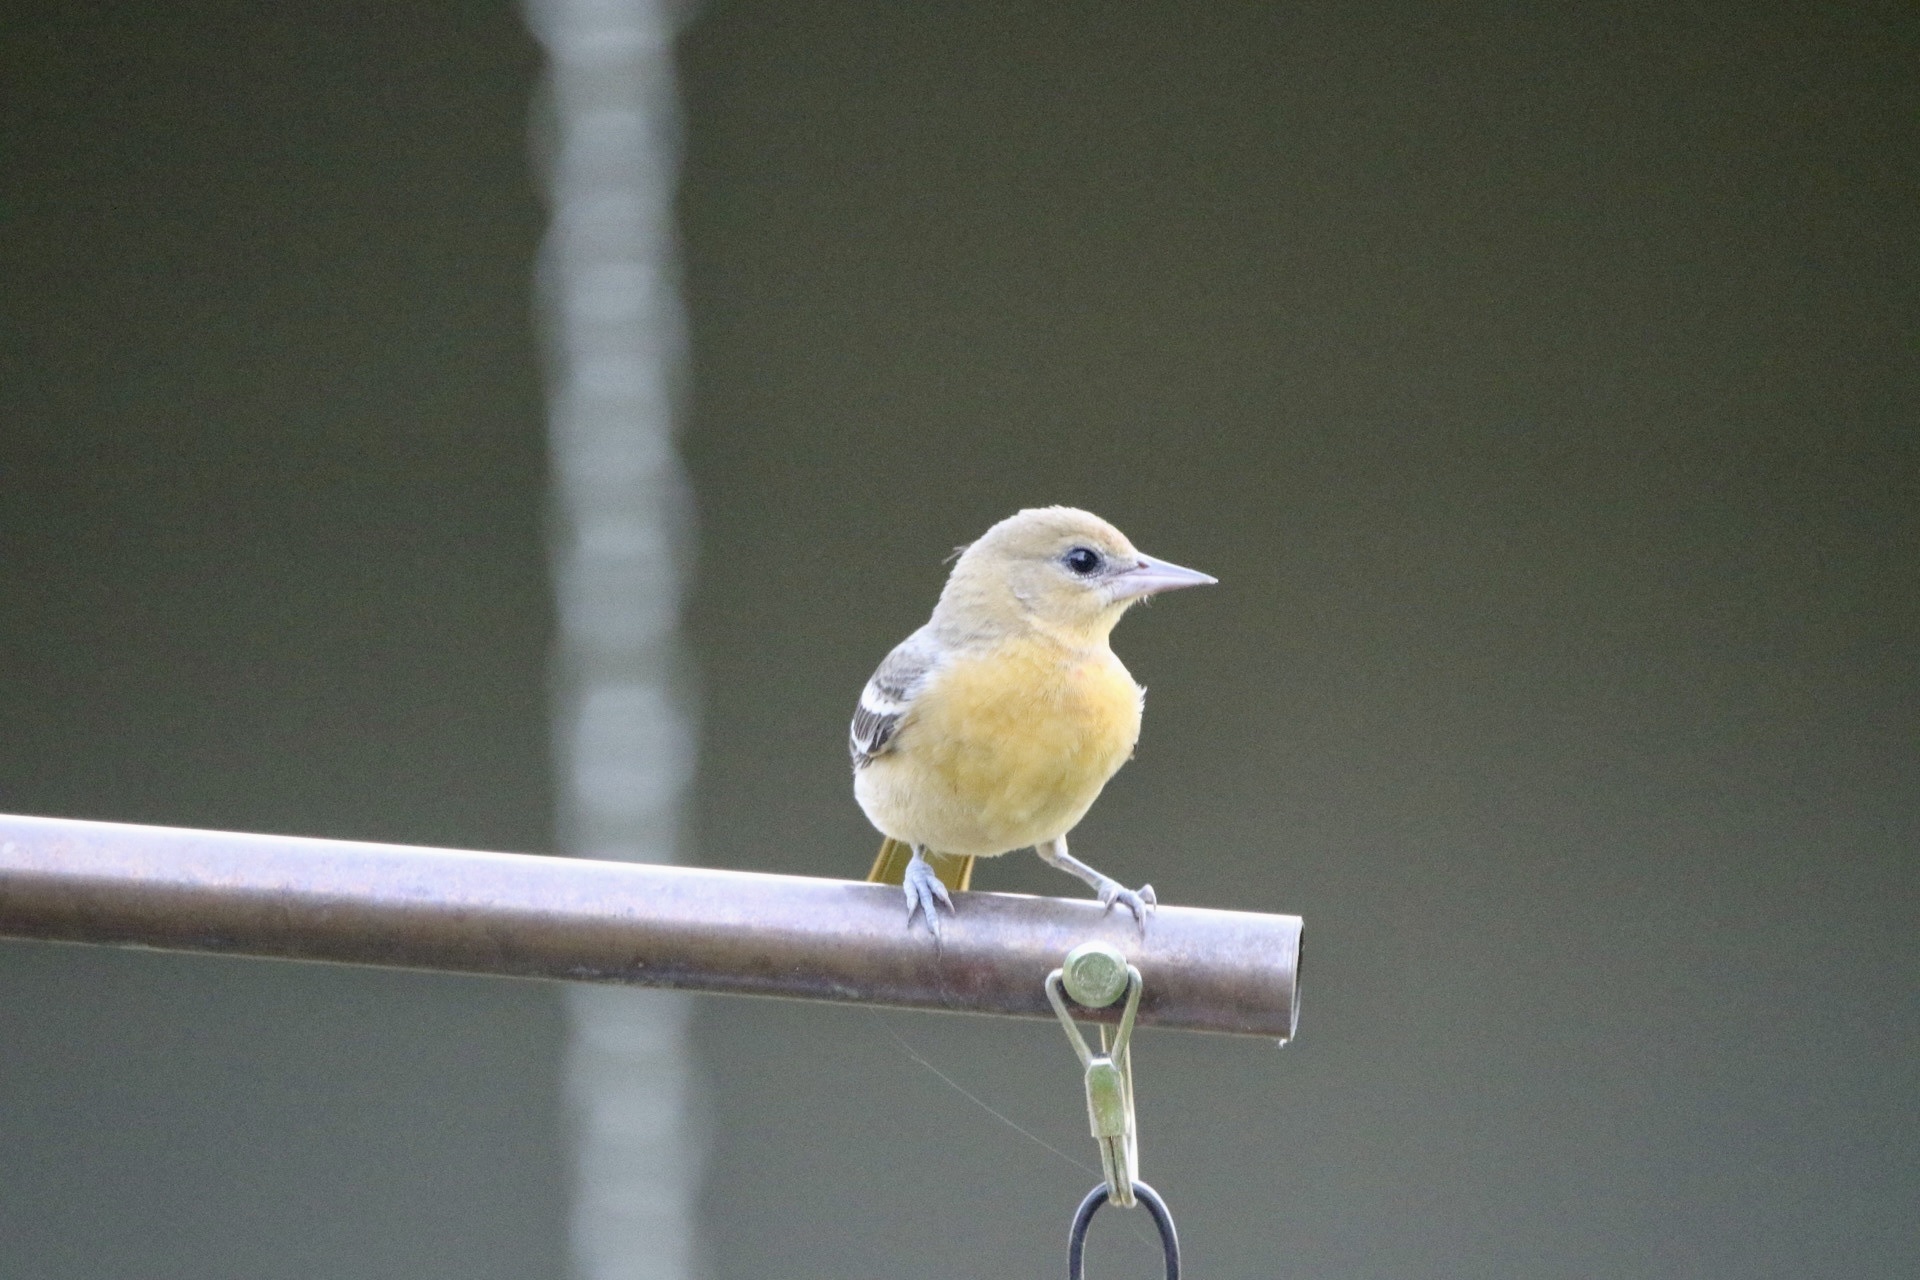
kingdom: Animalia
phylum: Chordata
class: Aves
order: Passeriformes
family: Icteridae
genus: Icterus
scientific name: Icterus galbula
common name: Baltimore oriole
